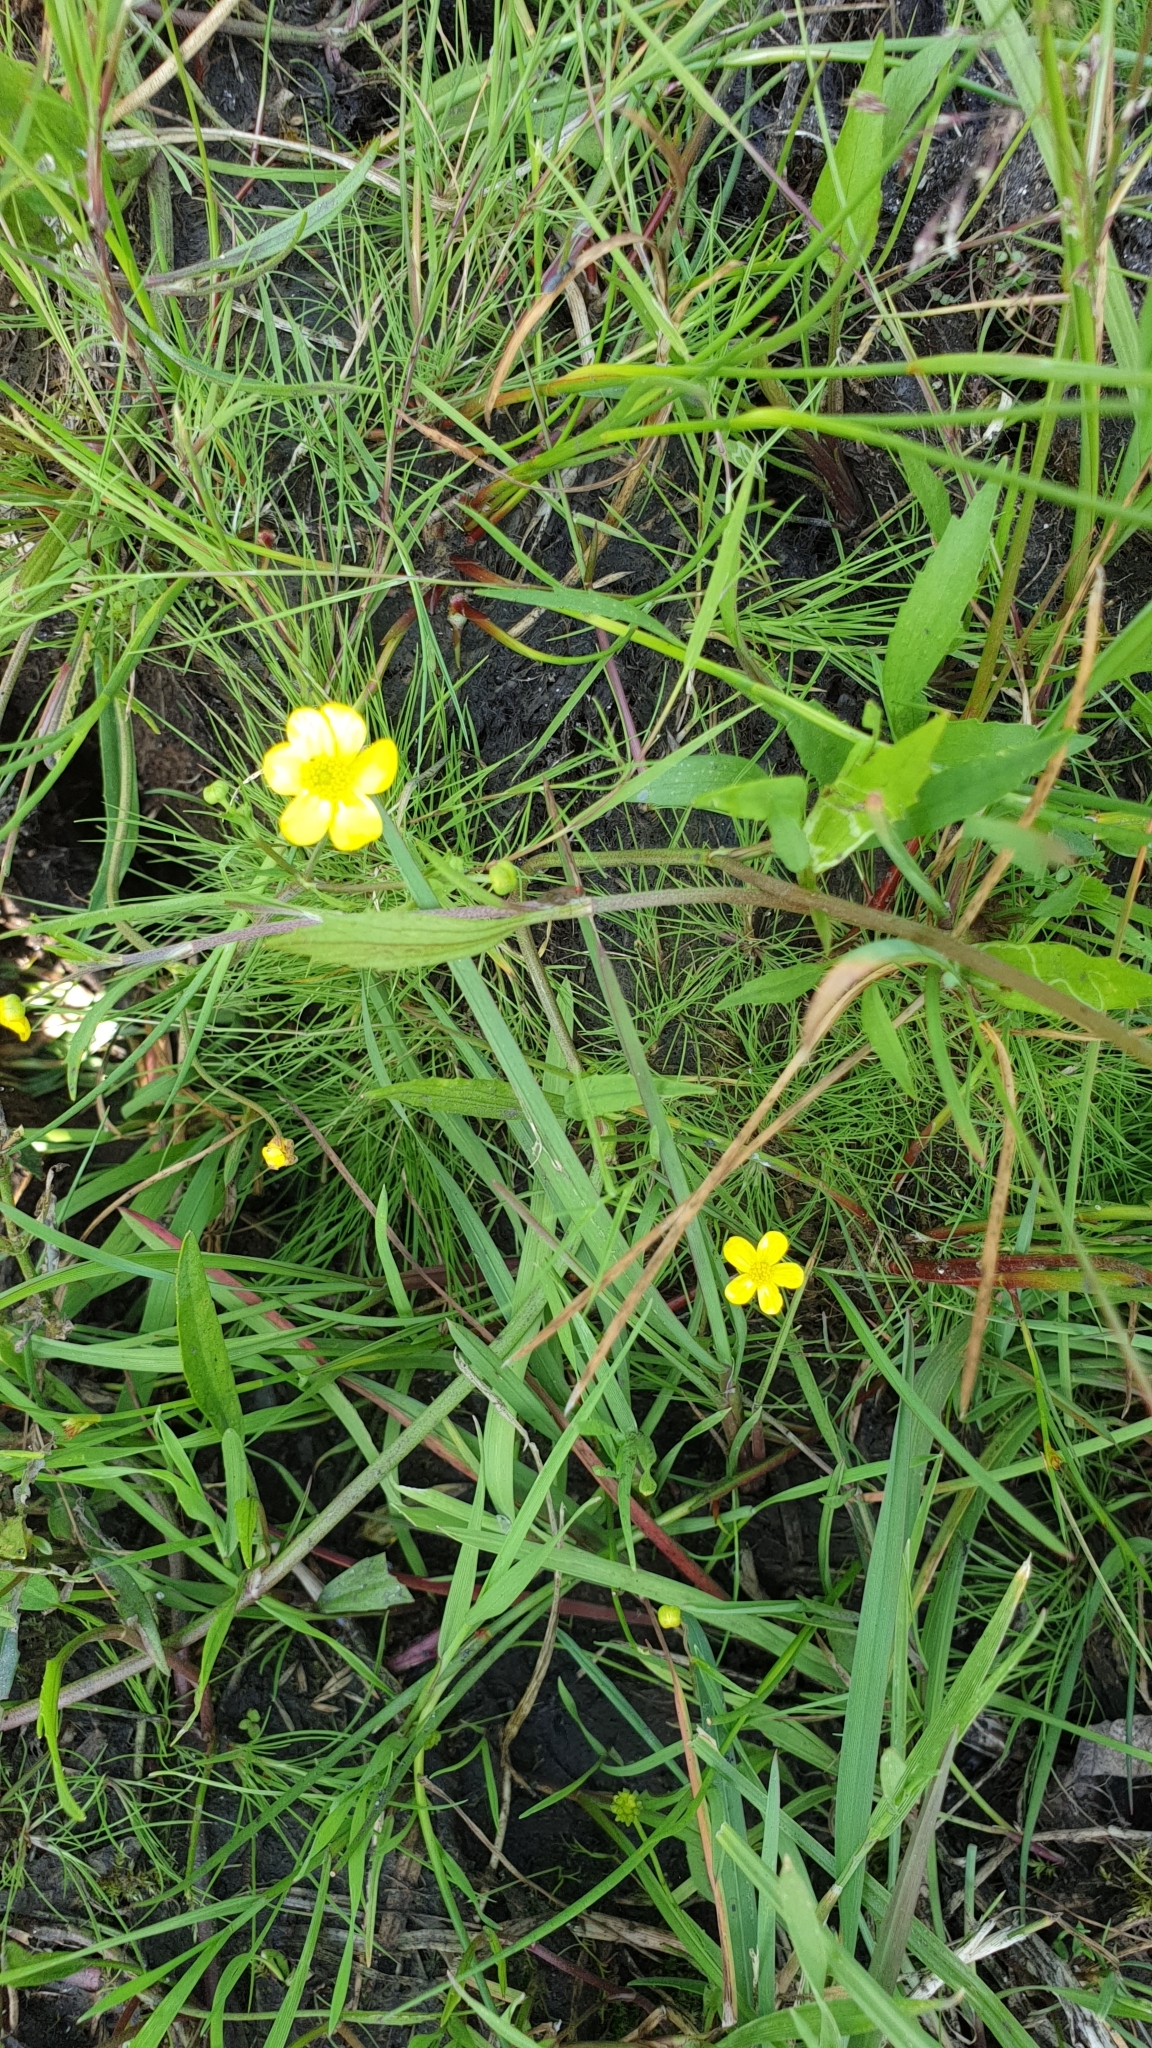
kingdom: Plantae
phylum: Tracheophyta
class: Magnoliopsida
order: Ranunculales
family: Ranunculaceae
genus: Ranunculus
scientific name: Ranunculus flammula
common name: Lesser spearwort
